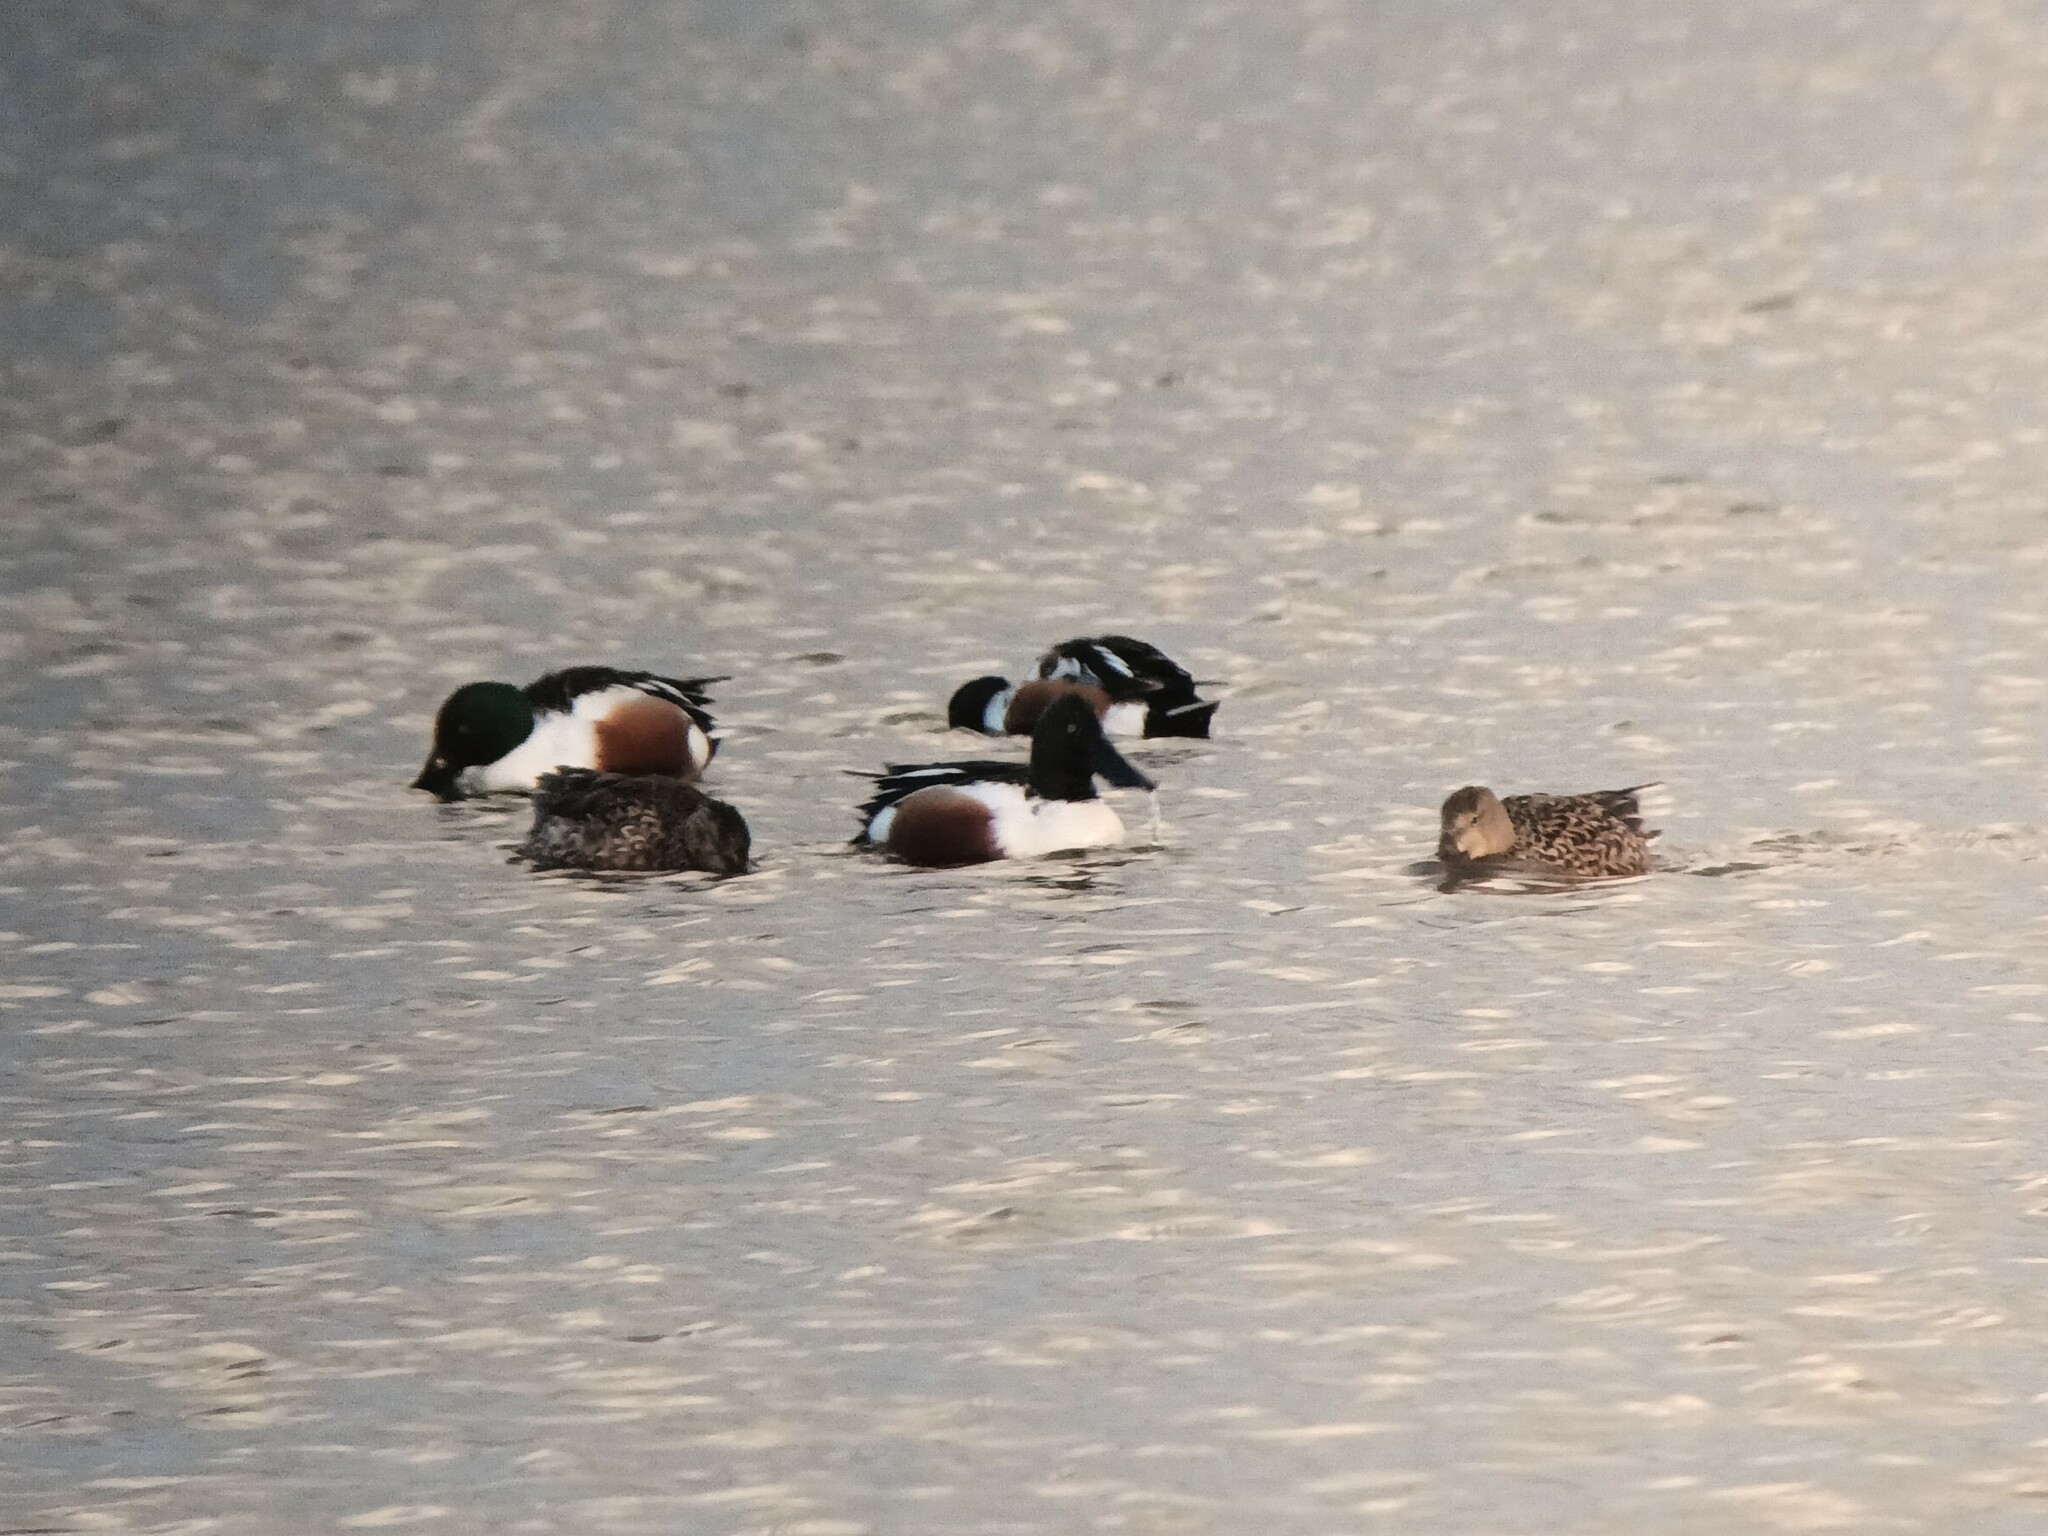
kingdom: Animalia
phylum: Chordata
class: Aves
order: Anseriformes
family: Anatidae
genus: Spatula
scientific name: Spatula clypeata
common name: Northern shoveler
